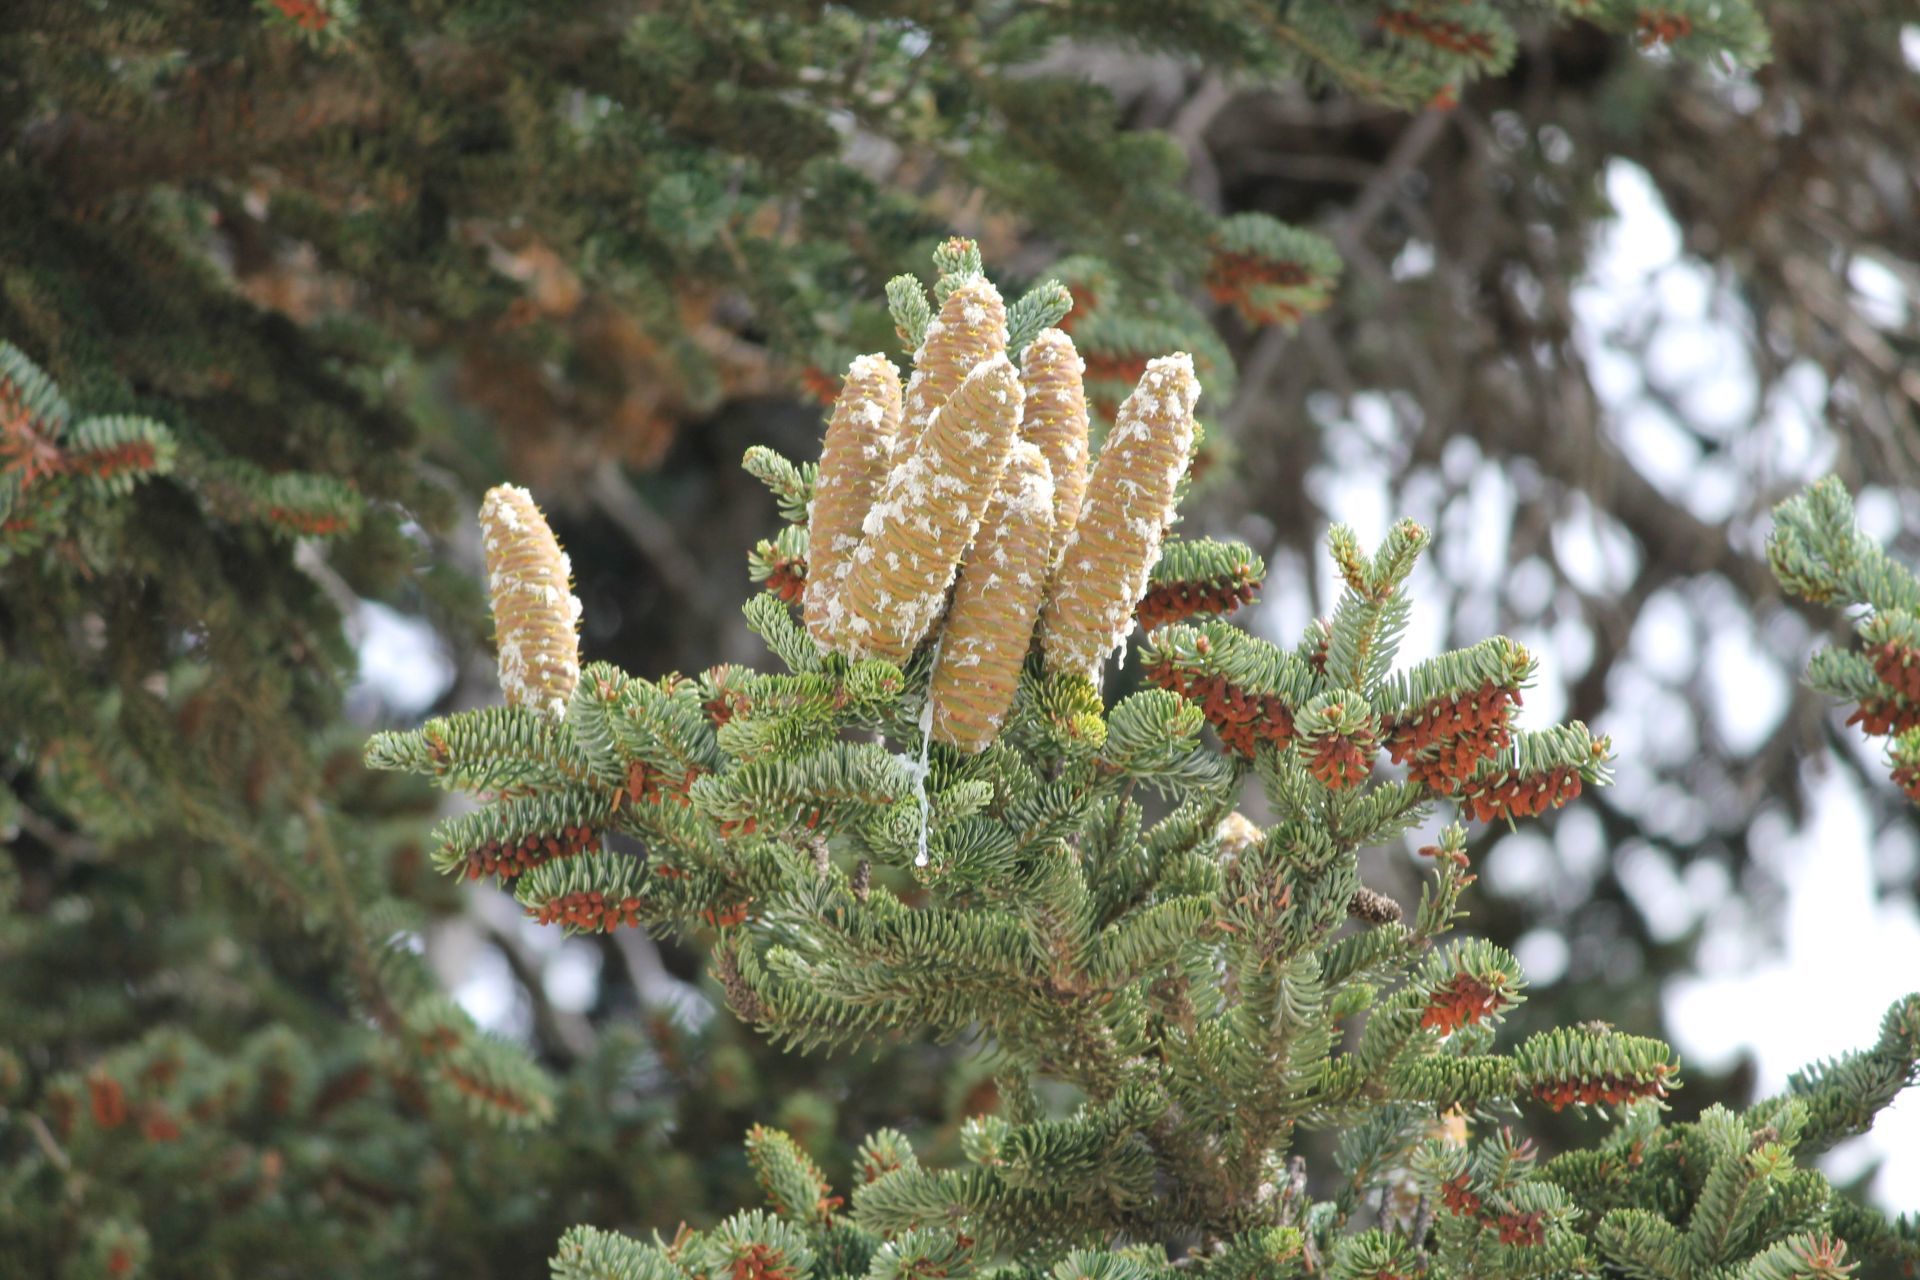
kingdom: Plantae
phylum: Tracheophyta
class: Pinopsida
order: Pinales
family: Pinaceae
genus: Abies
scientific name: Abies cephalonica
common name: Greek fir
